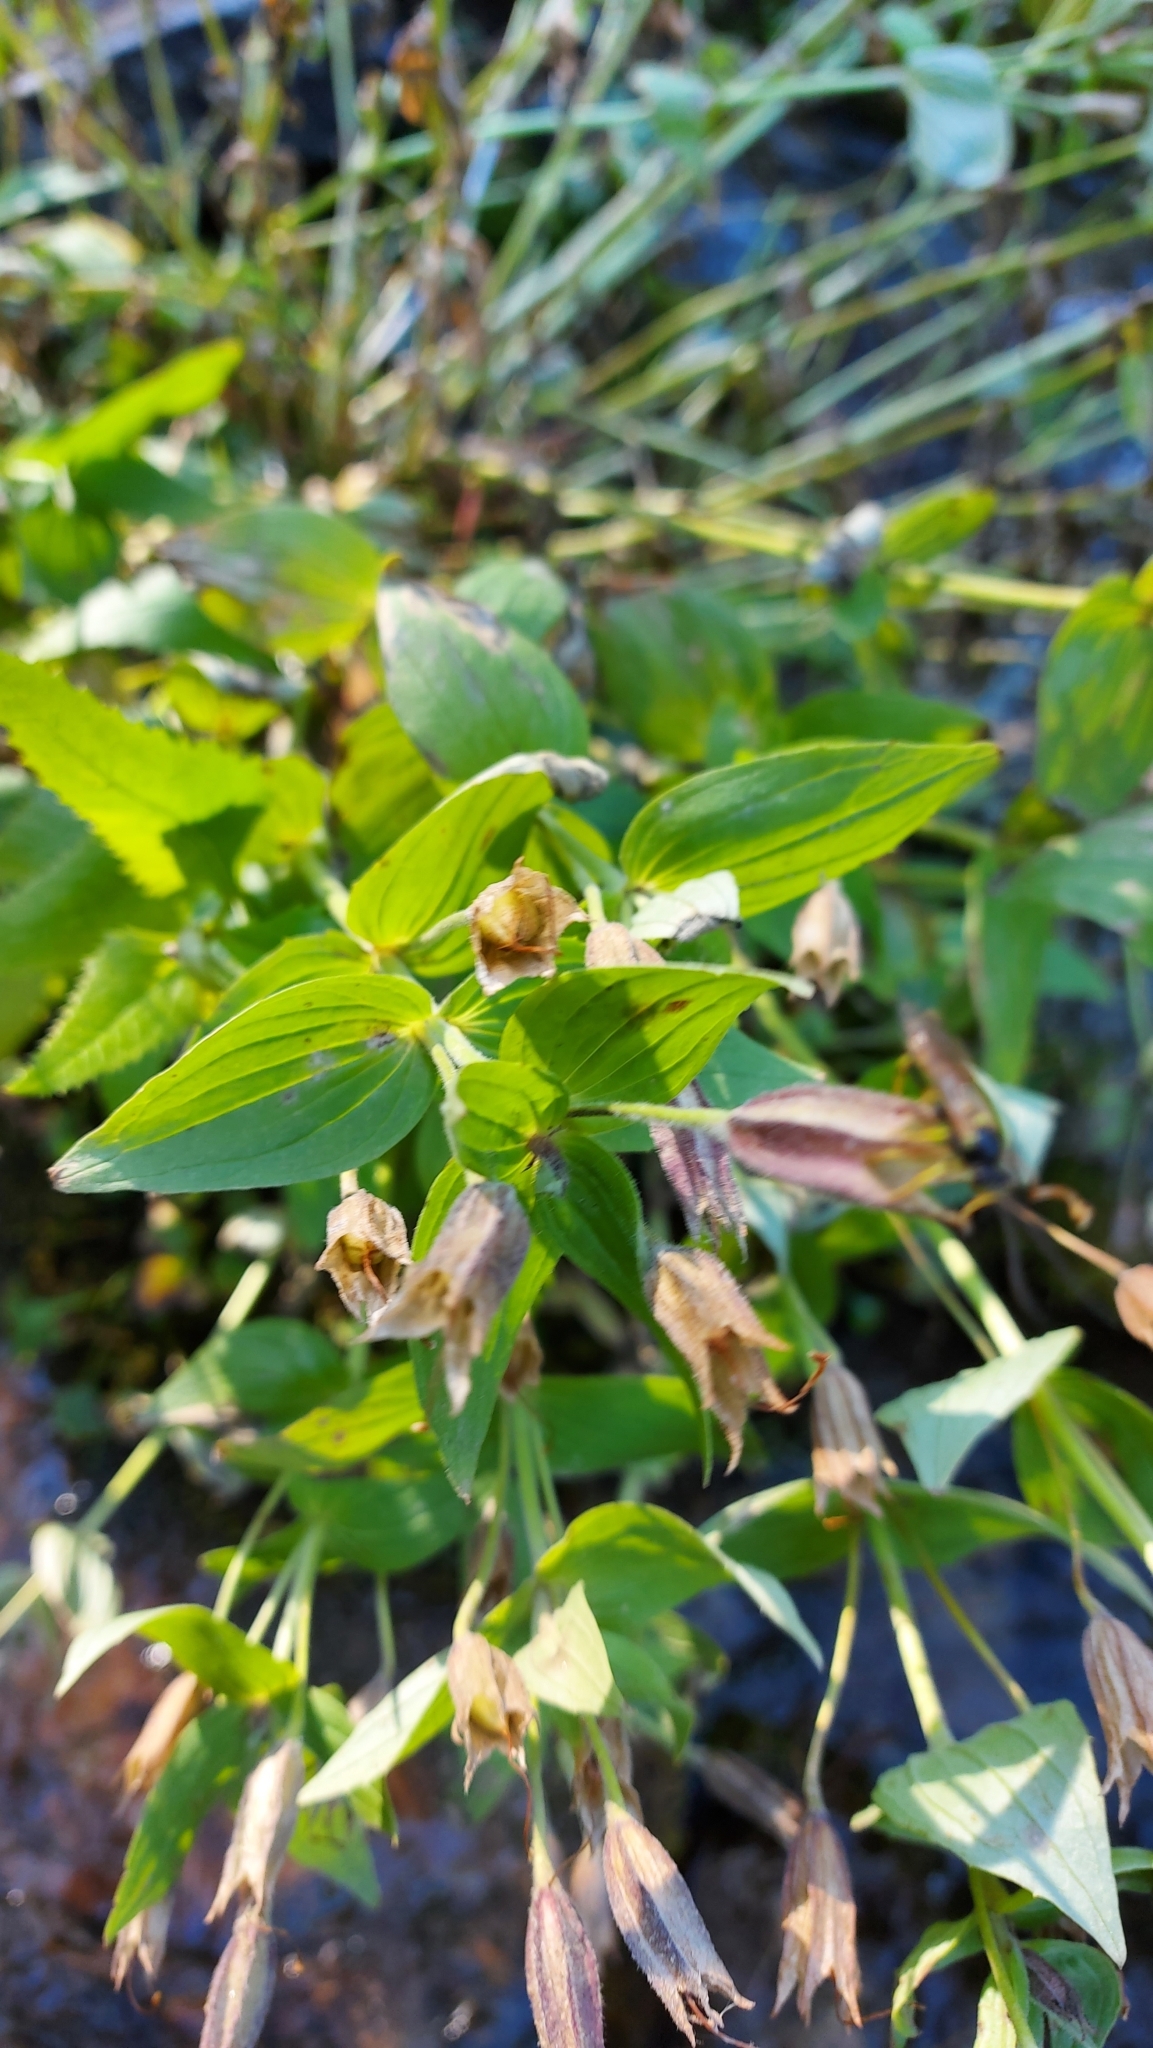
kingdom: Plantae
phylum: Tracheophyta
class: Magnoliopsida
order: Lamiales
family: Phrymaceae
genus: Erythranthe
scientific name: Erythranthe lewisii
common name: Lewis's monkey-flower
